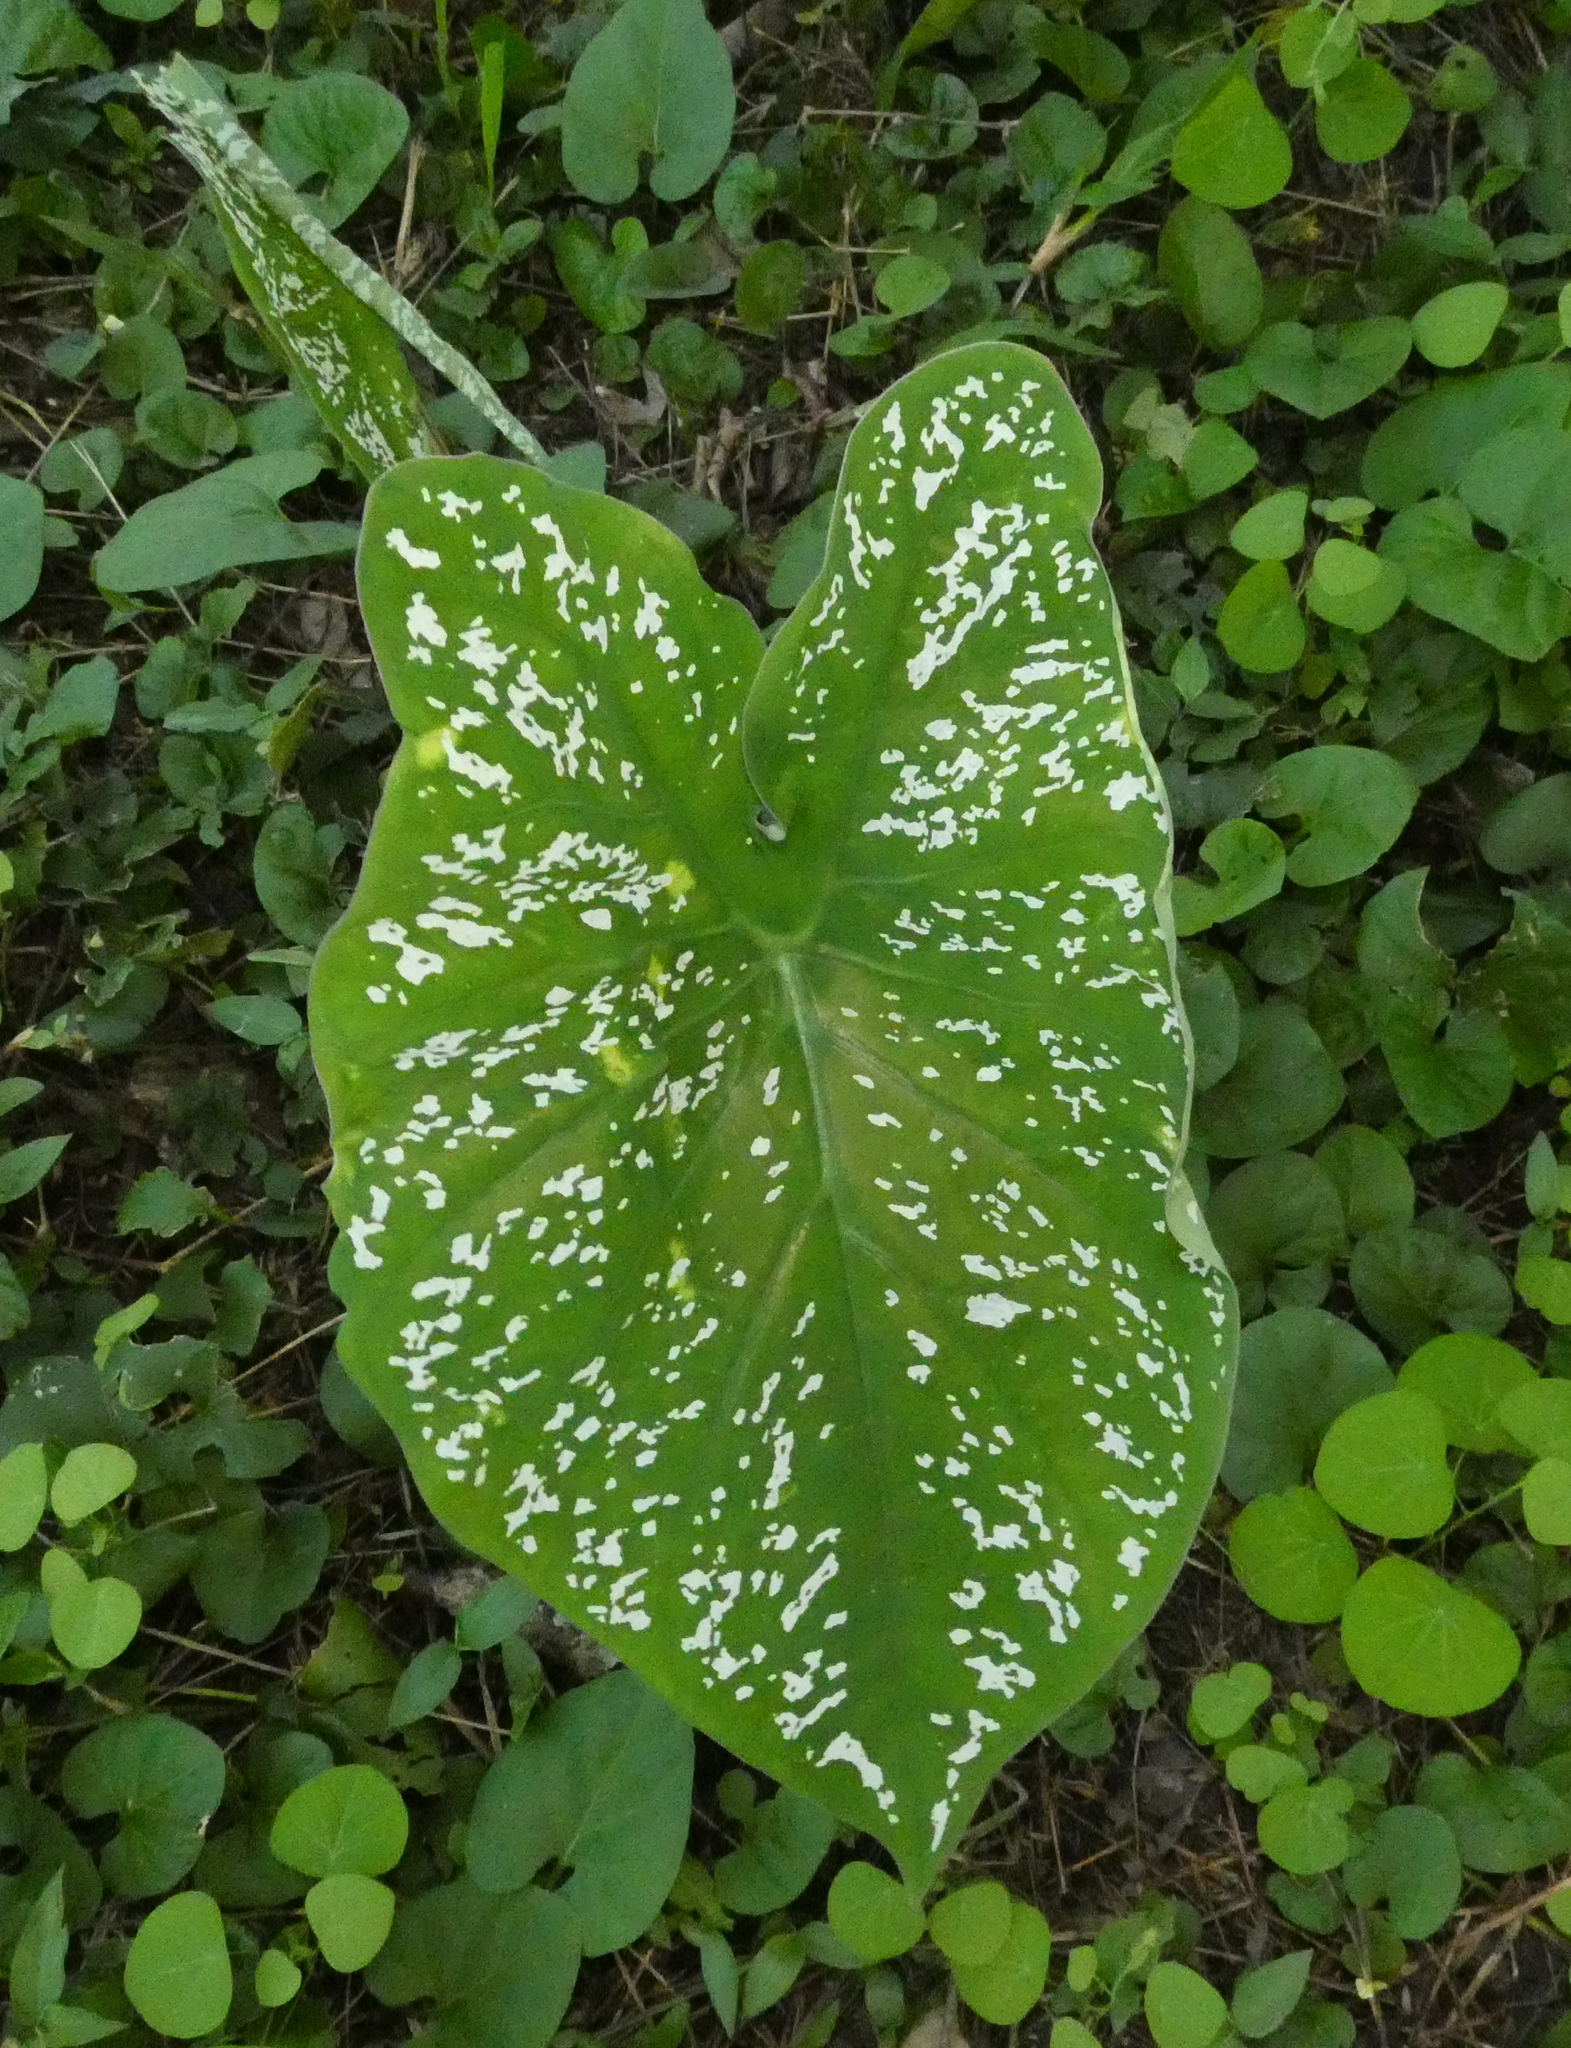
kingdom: Plantae
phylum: Tracheophyta
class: Liliopsida
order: Alismatales
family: Araceae
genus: Caladium
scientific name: Caladium bicolor
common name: Artist's pallet
